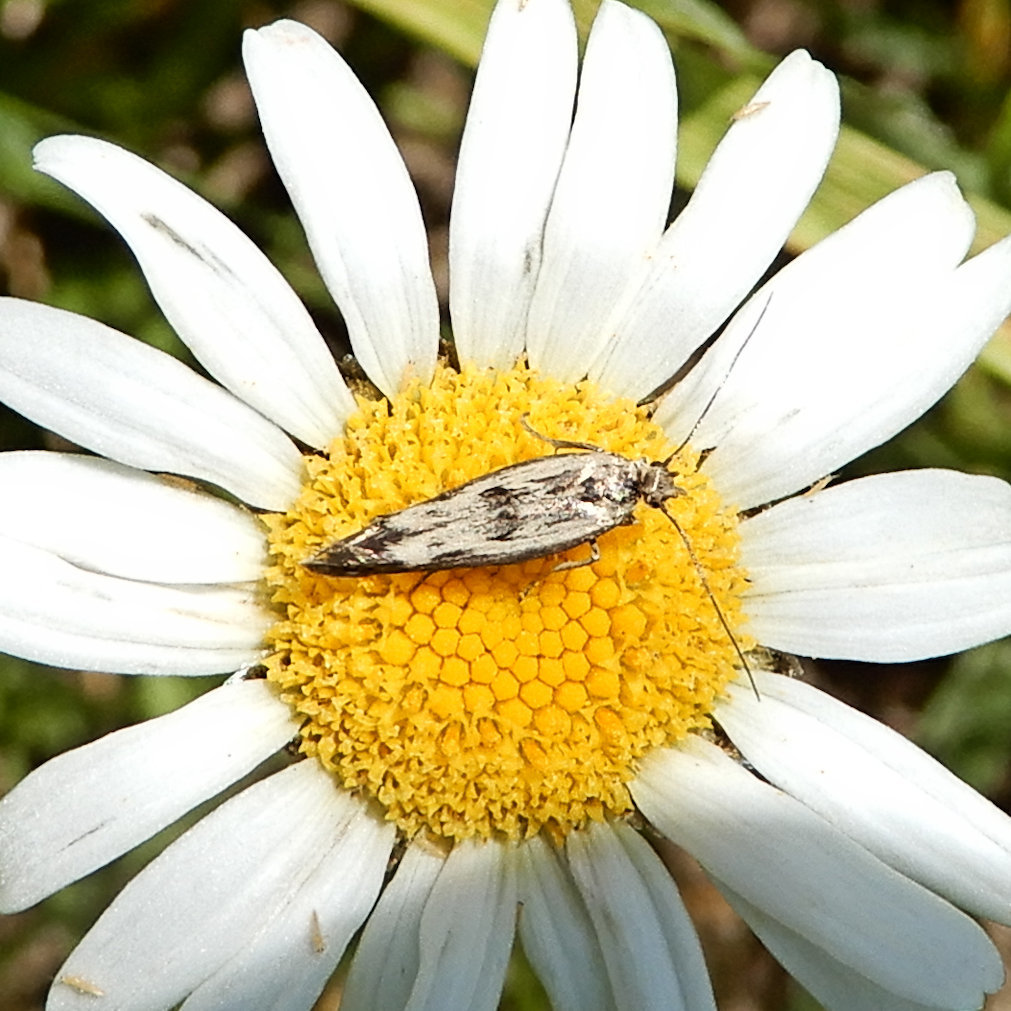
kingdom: Animalia
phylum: Arthropoda
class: Insecta
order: Lepidoptera
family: Scythrididae
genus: Scythris
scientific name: Scythris limbella
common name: Goosefoot owlet
